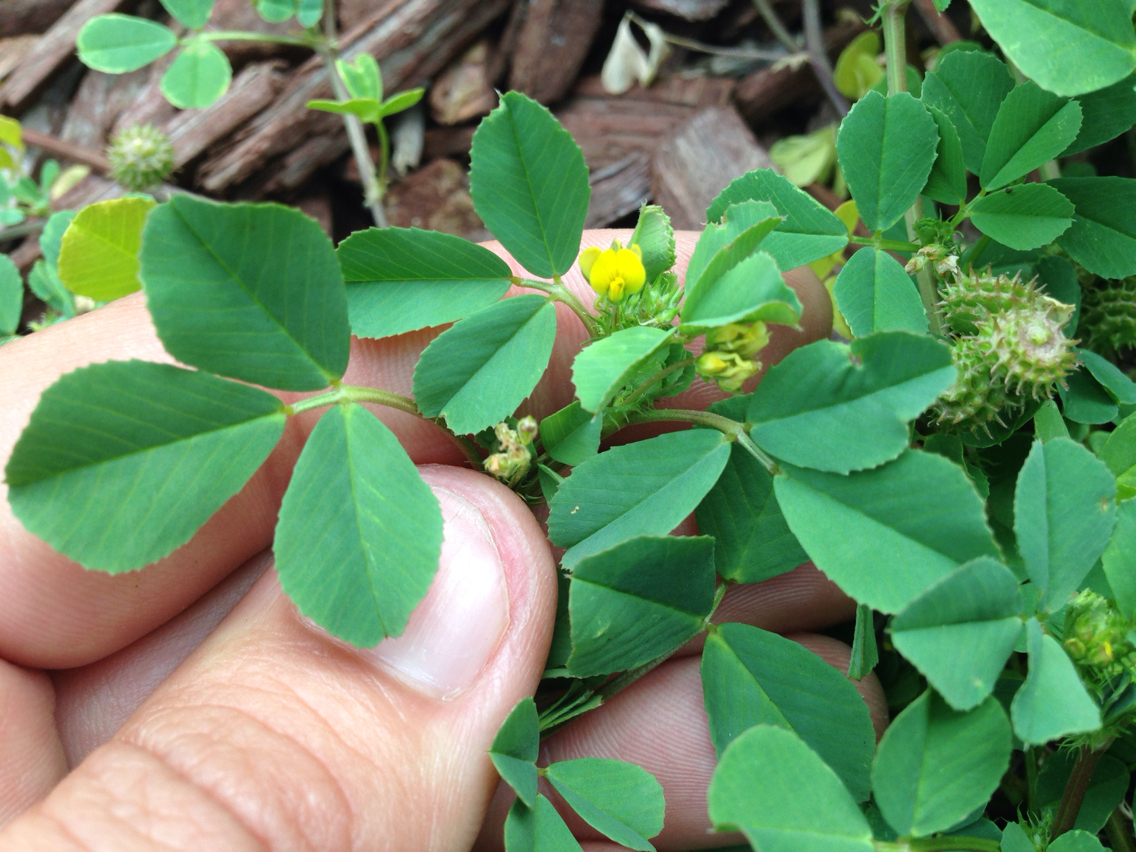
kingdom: Plantae
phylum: Tracheophyta
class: Magnoliopsida
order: Fabales
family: Fabaceae
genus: Medicago
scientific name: Medicago polymorpha
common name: Burclover
